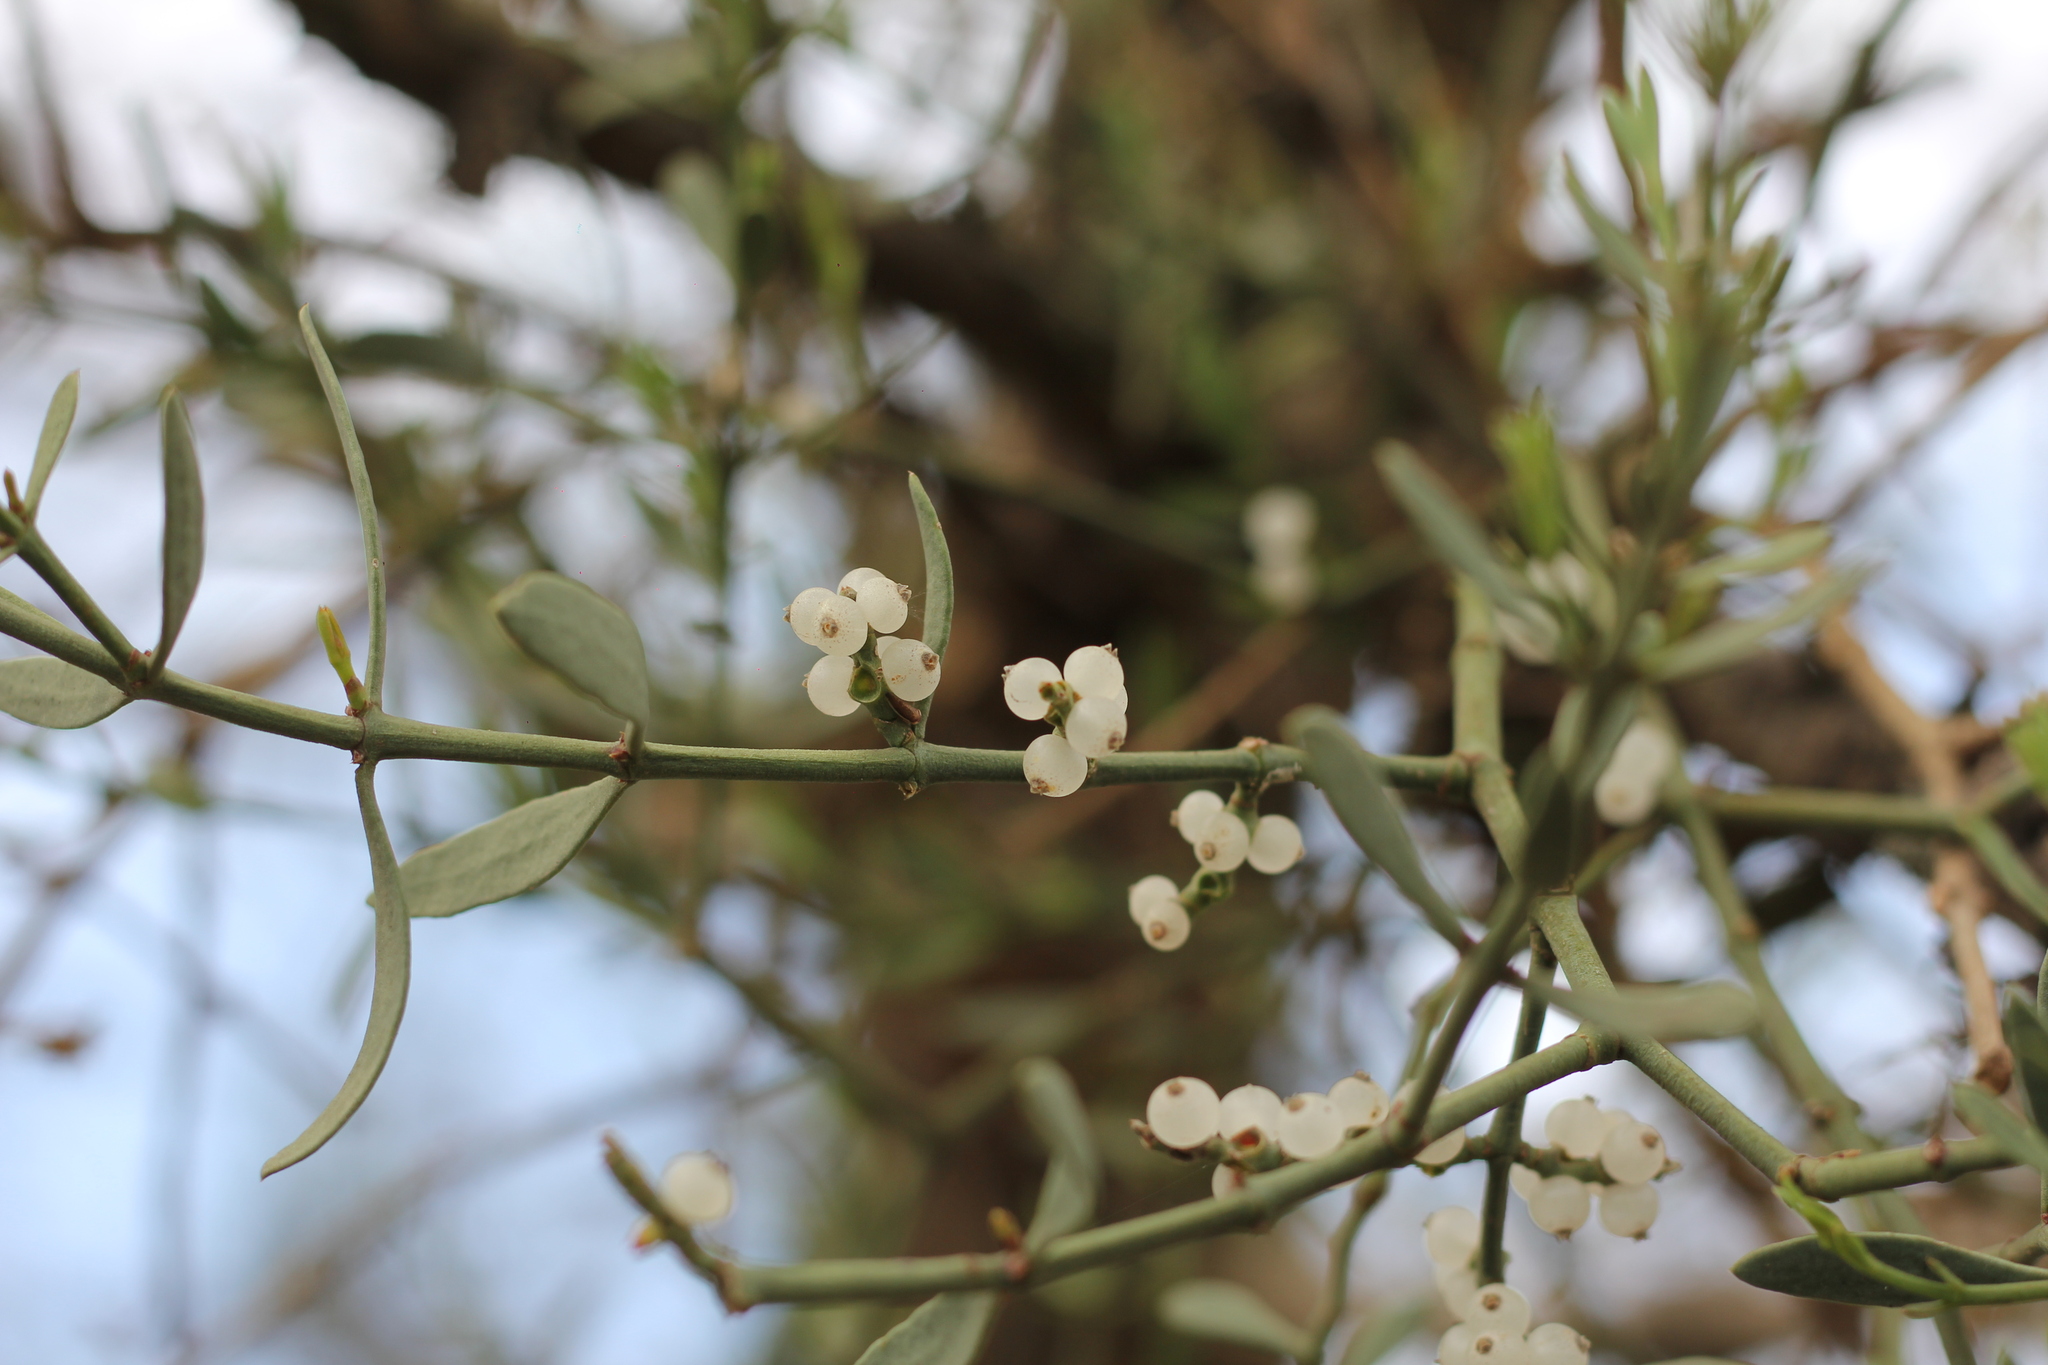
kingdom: Plantae
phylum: Tracheophyta
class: Magnoliopsida
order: Santalales
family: Viscaceae
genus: Phoradendron
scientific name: Phoradendron quadrangulare
